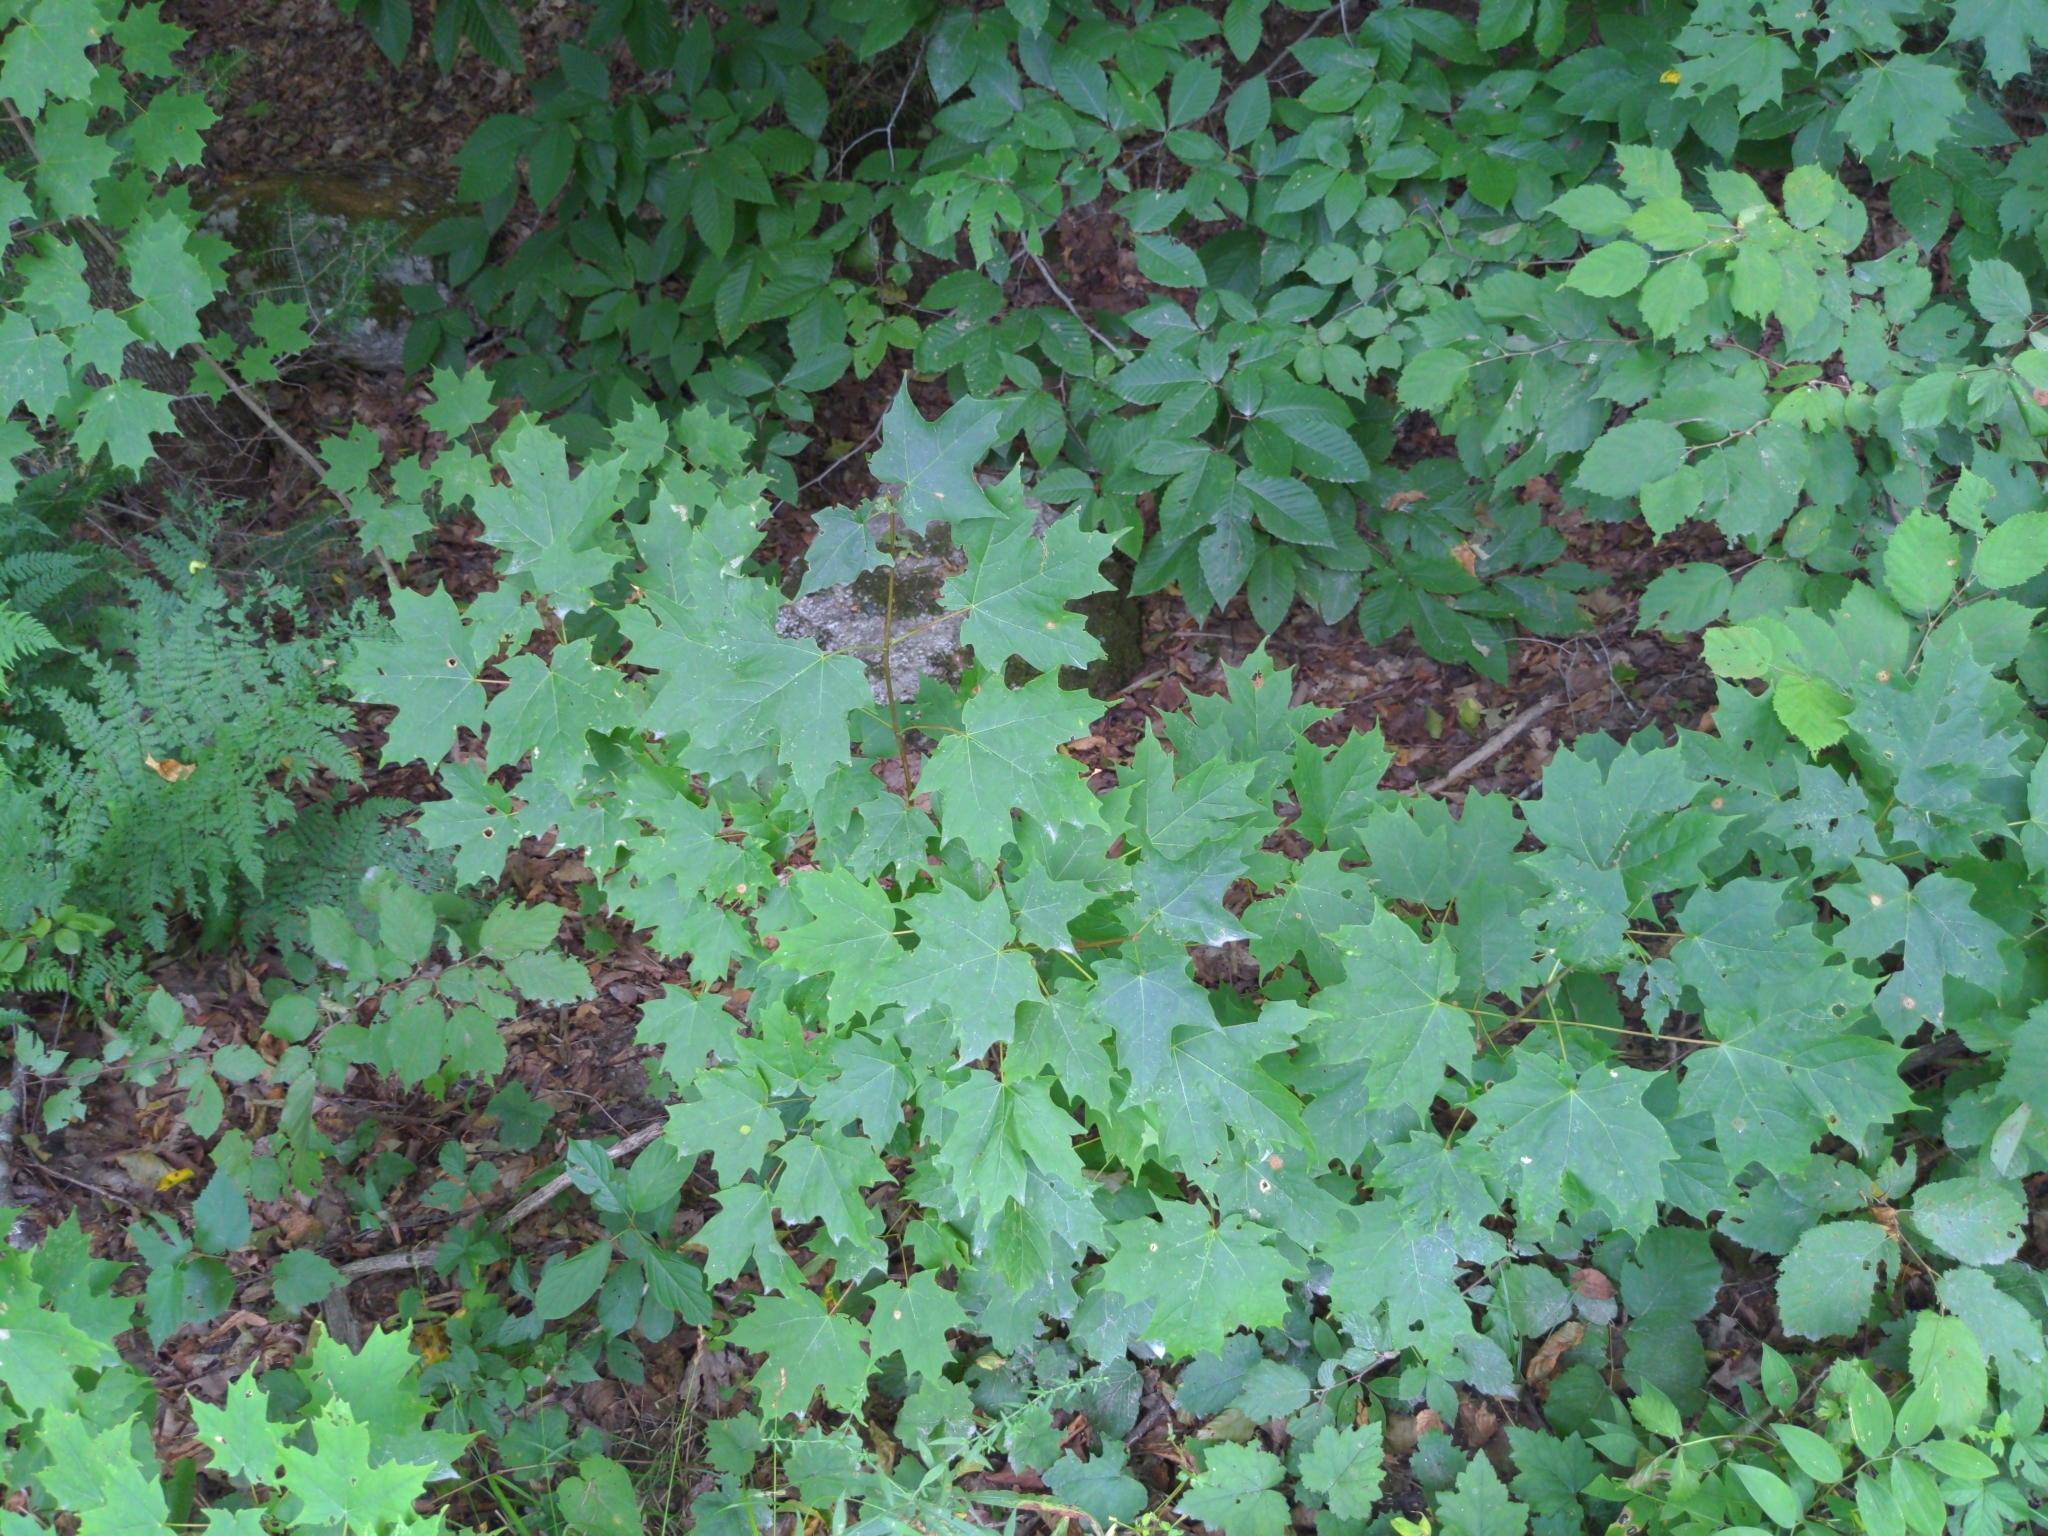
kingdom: Plantae
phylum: Tracheophyta
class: Magnoliopsida
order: Sapindales
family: Sapindaceae
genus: Acer
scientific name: Acer saccharum
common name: Sugar maple
